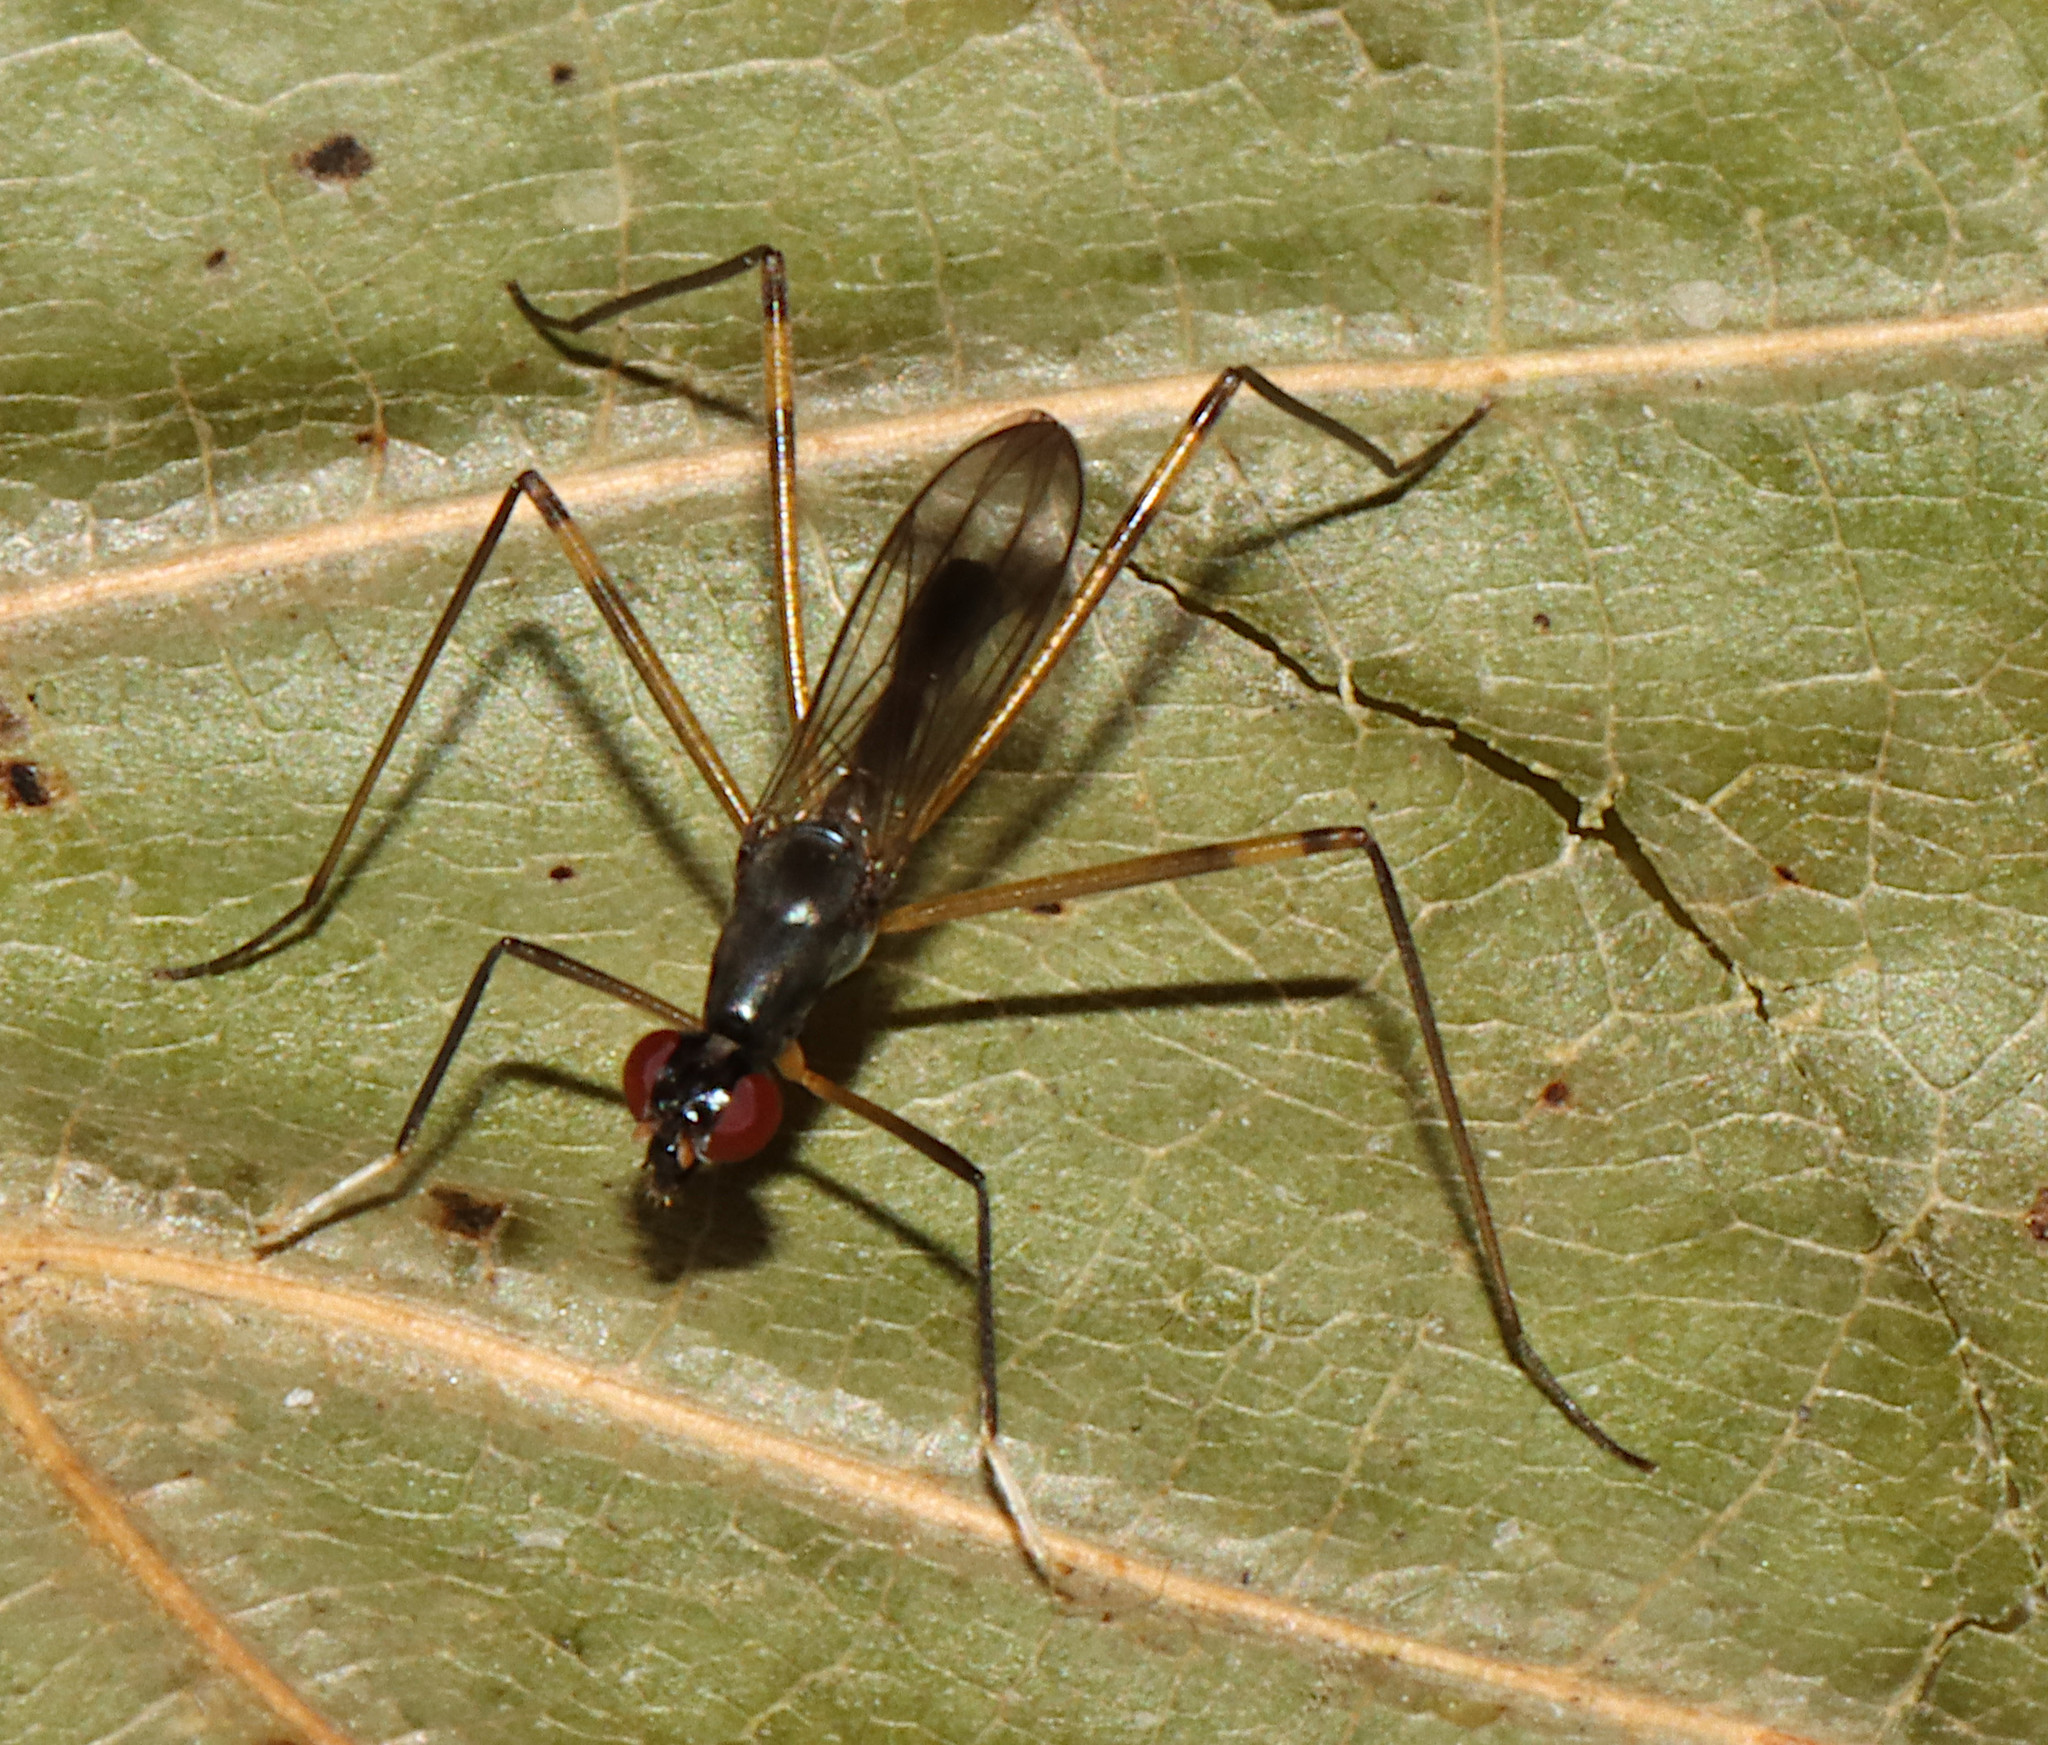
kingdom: Animalia
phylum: Arthropoda
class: Insecta
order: Diptera
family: Micropezidae
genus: Rainieria
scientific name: Rainieria antennaepes
